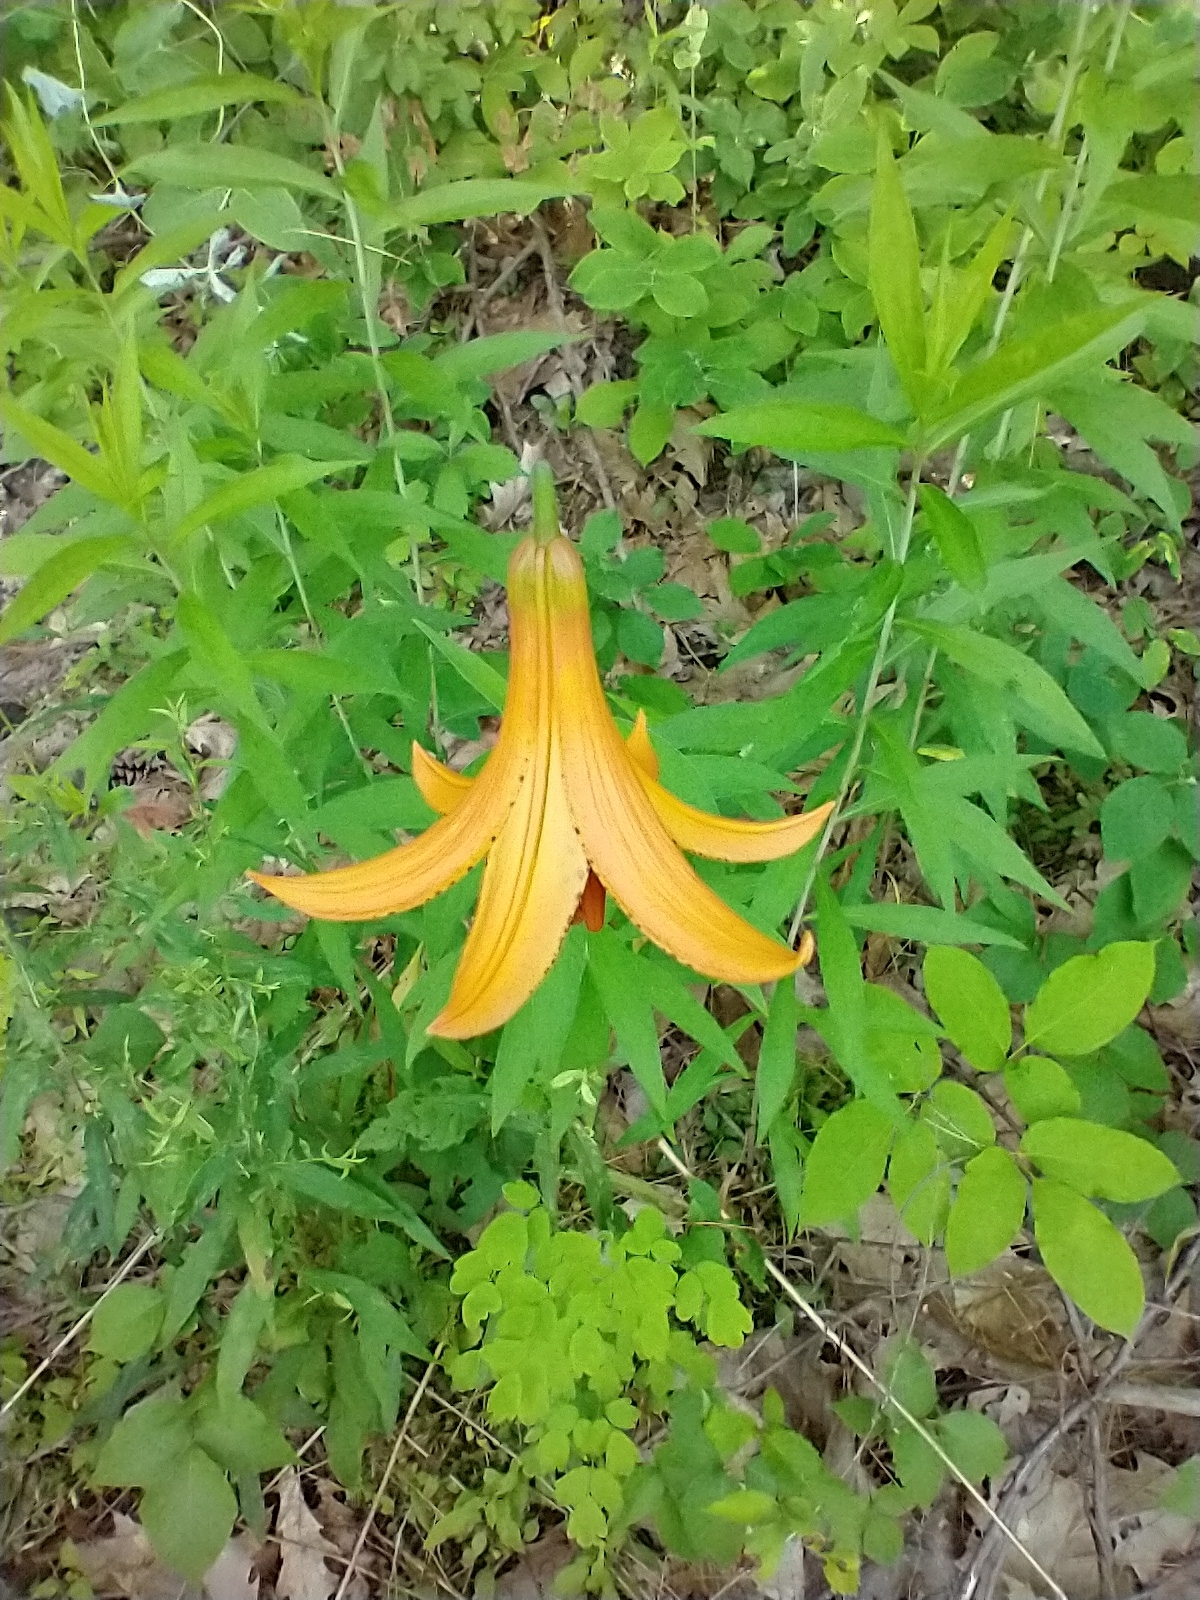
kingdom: Plantae
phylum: Tracheophyta
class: Liliopsida
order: Liliales
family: Liliaceae
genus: Lilium
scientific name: Lilium canadense
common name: Canada lily
